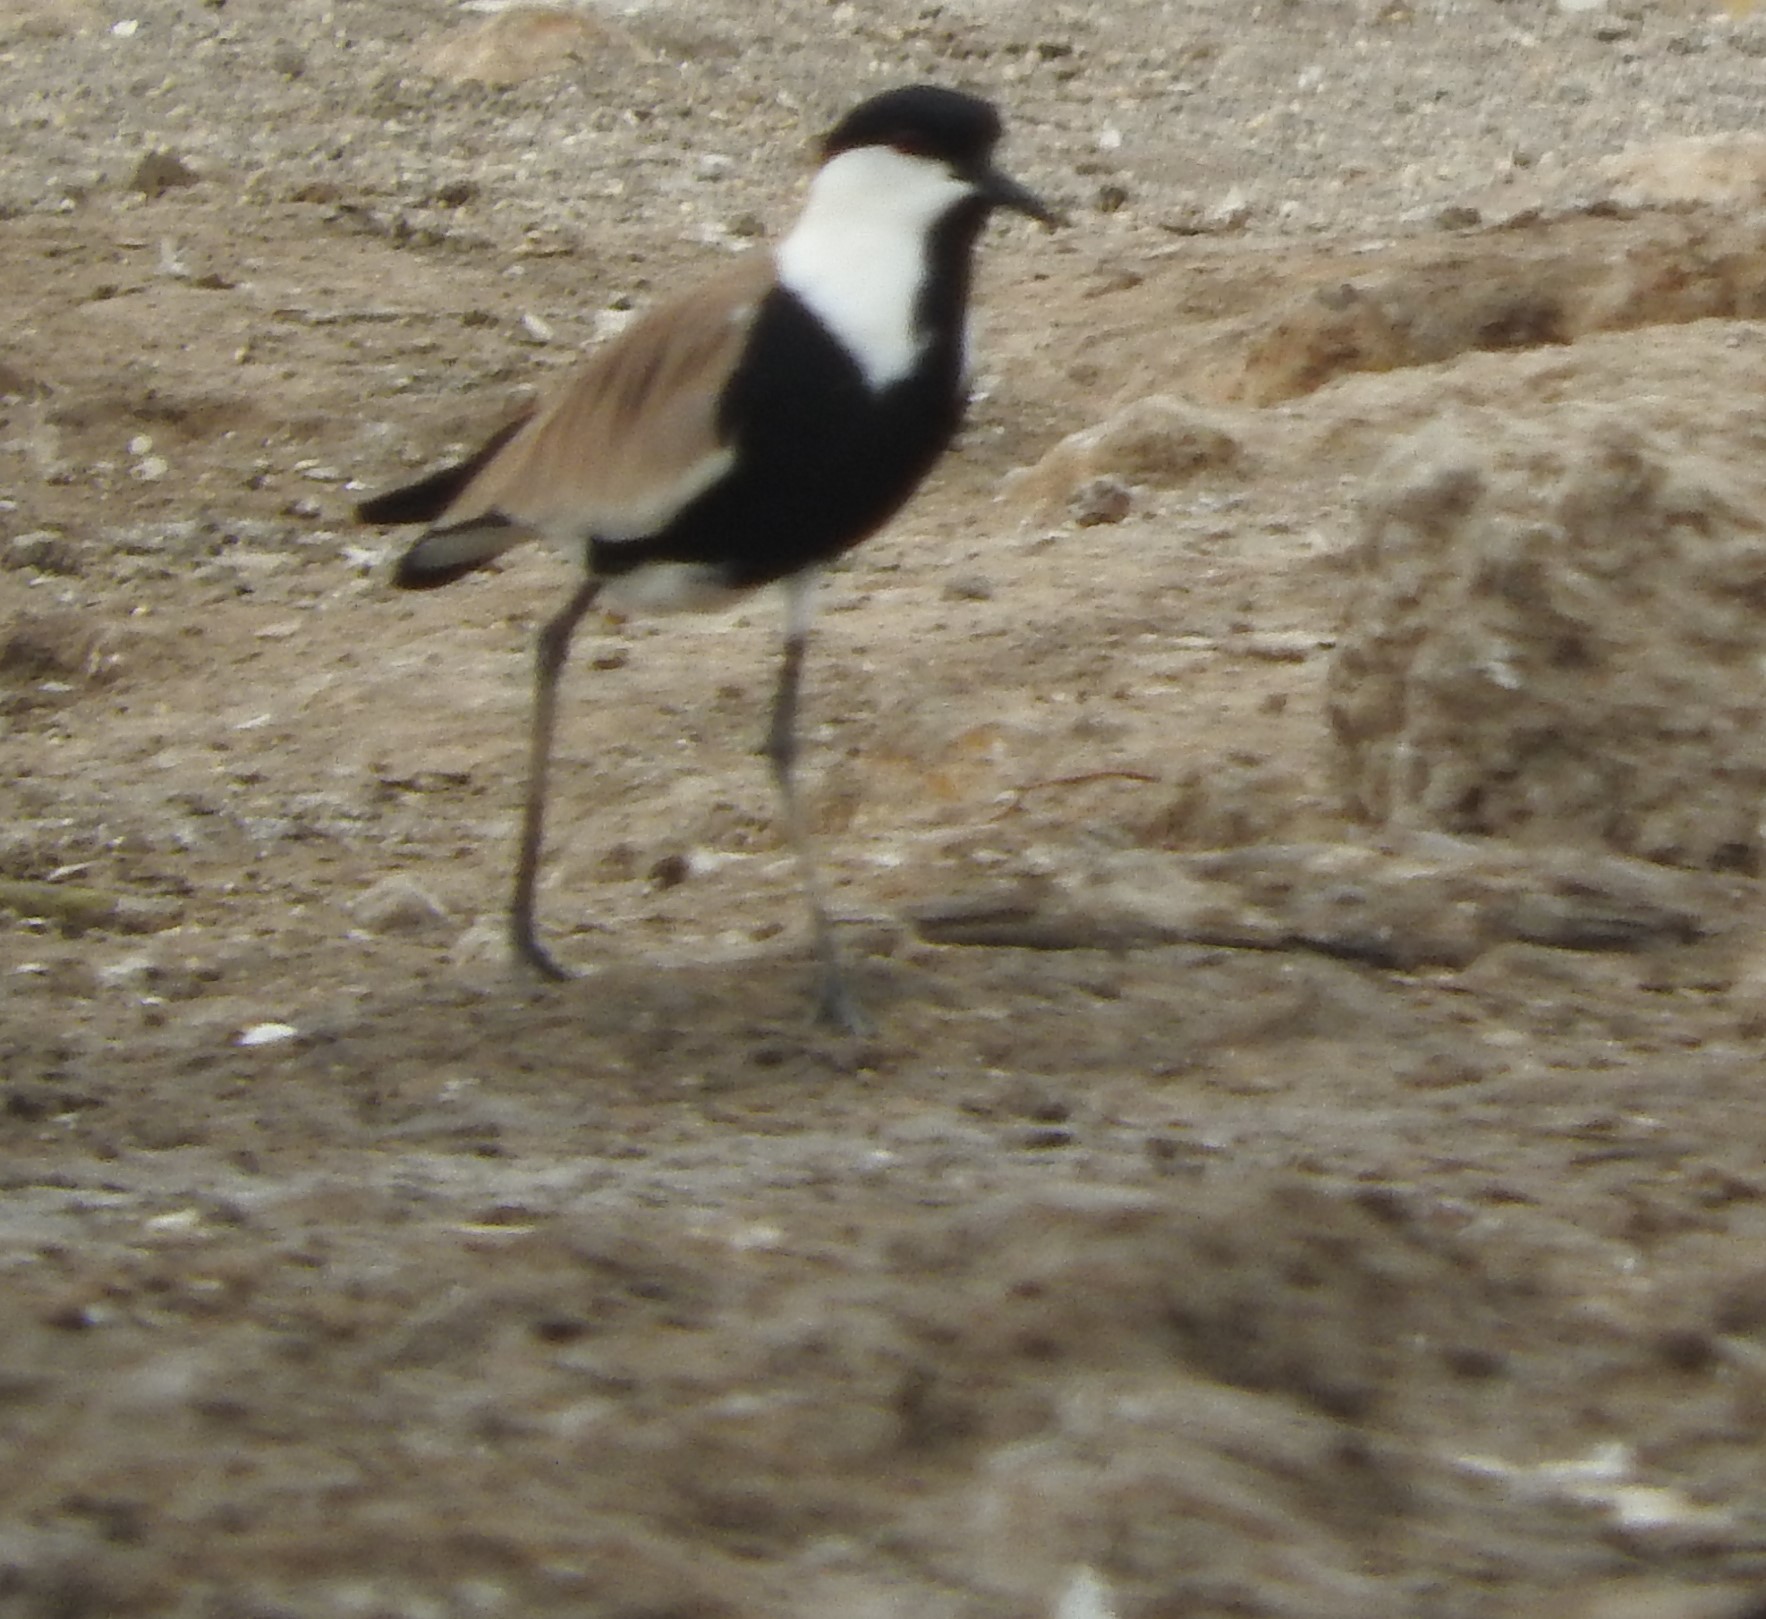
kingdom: Animalia
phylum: Chordata
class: Aves
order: Charadriiformes
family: Charadriidae
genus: Vanellus
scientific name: Vanellus spinosus
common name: Spur-winged lapwing
